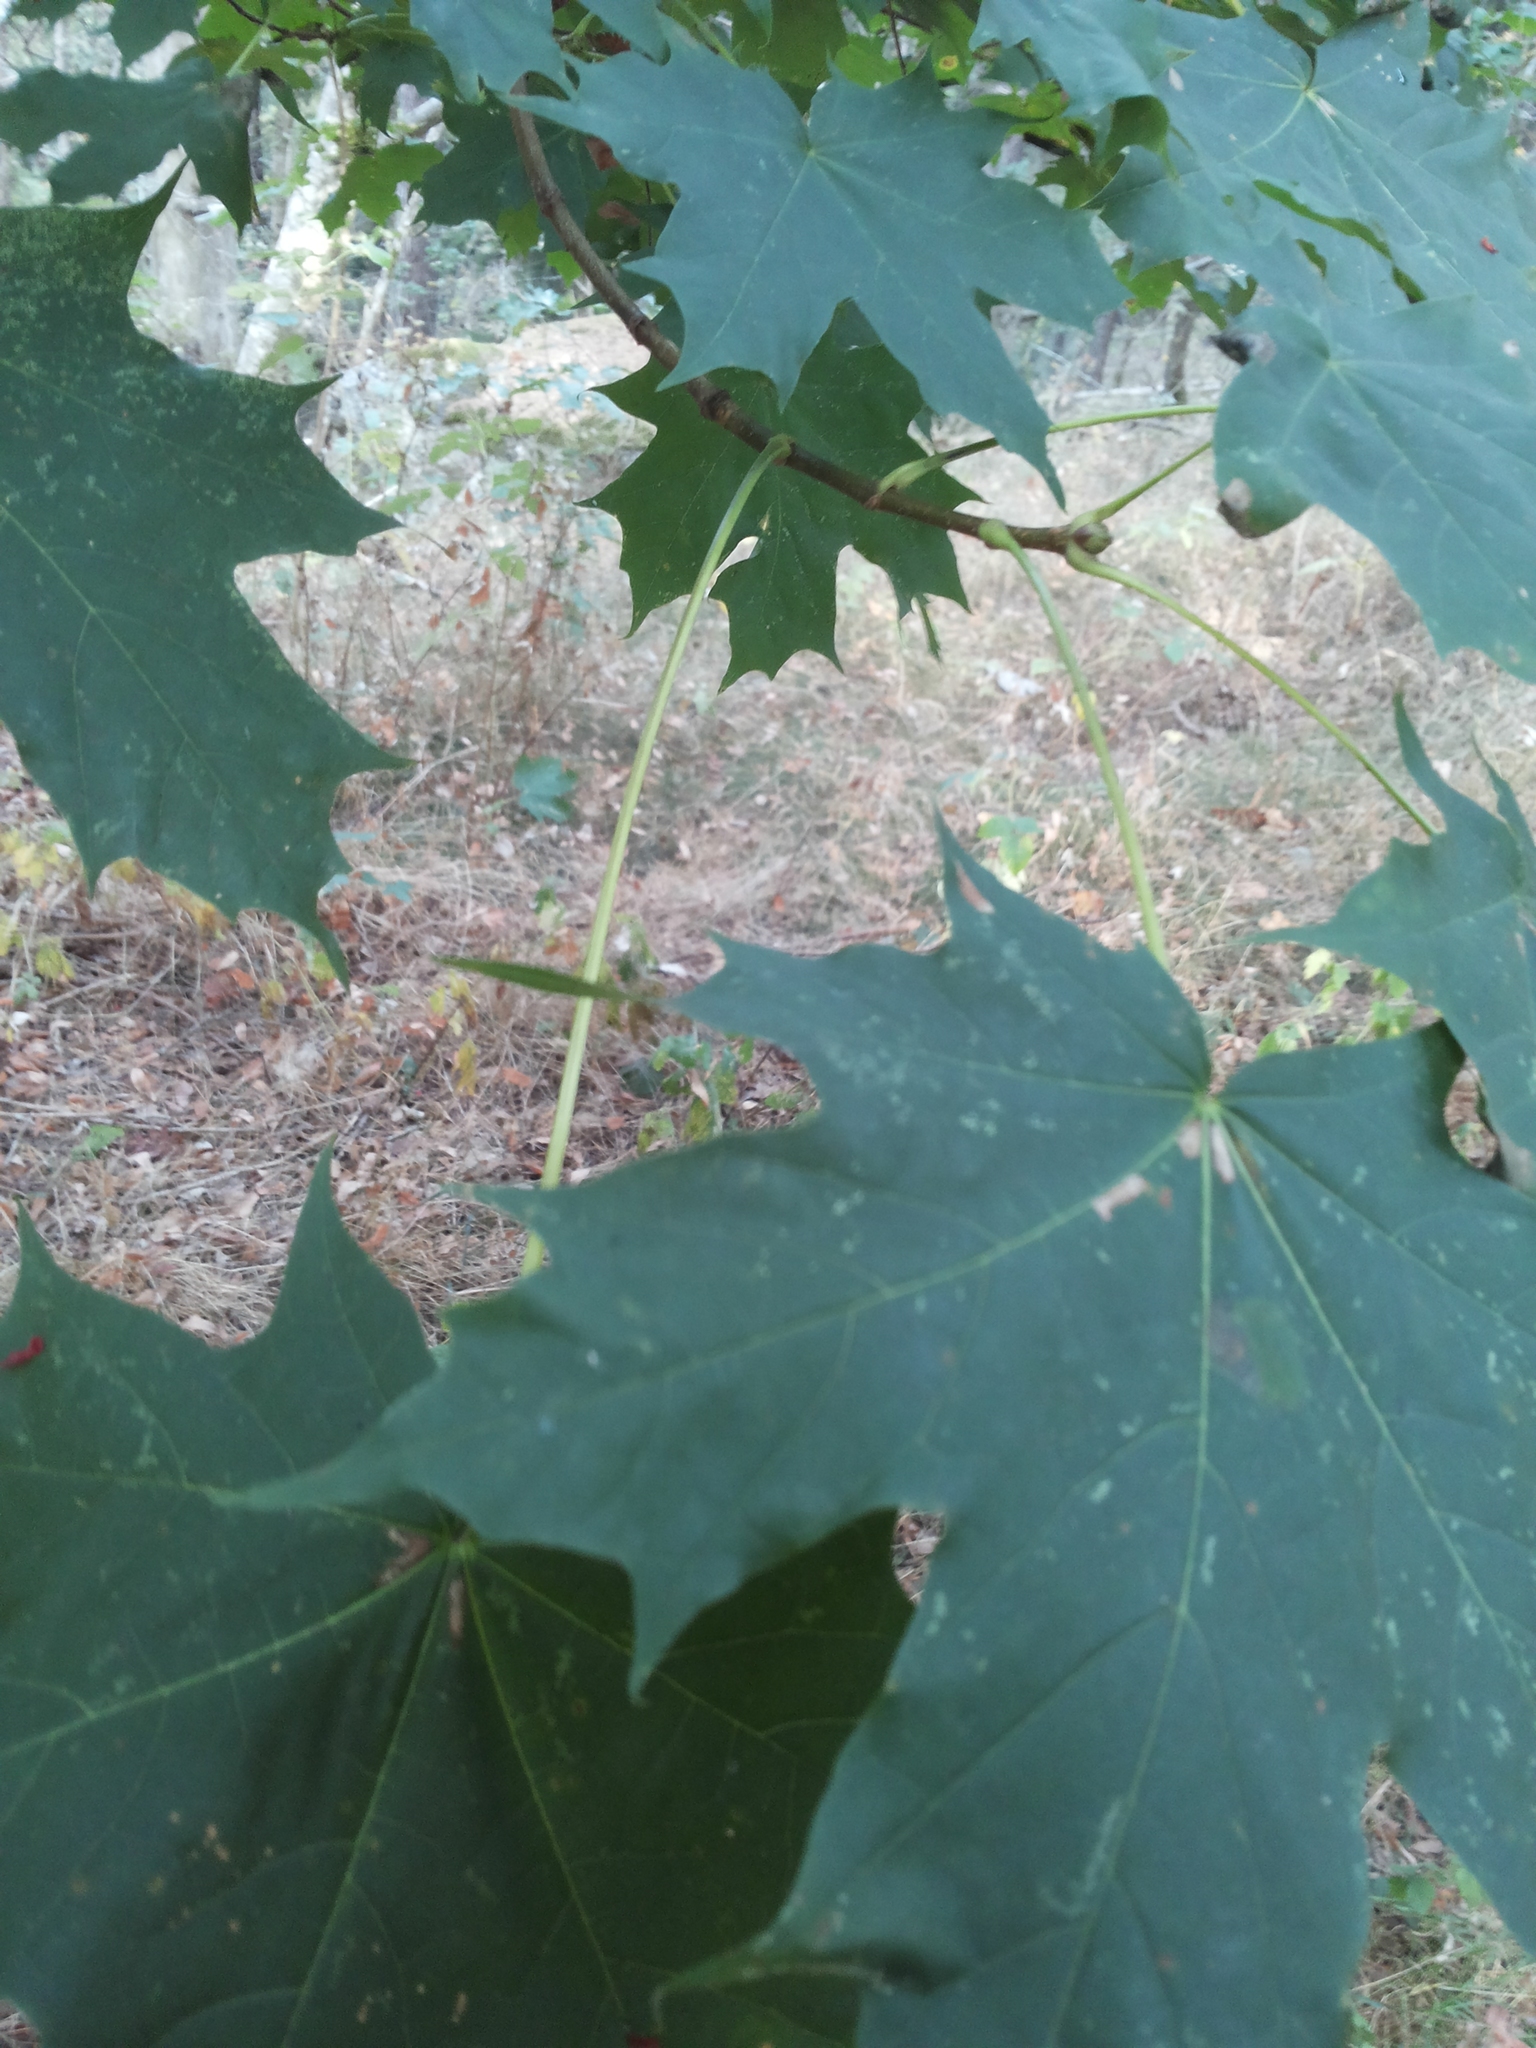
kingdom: Plantae
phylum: Tracheophyta
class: Magnoliopsida
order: Sapindales
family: Sapindaceae
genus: Acer
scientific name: Acer platanoides
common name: Norway maple
